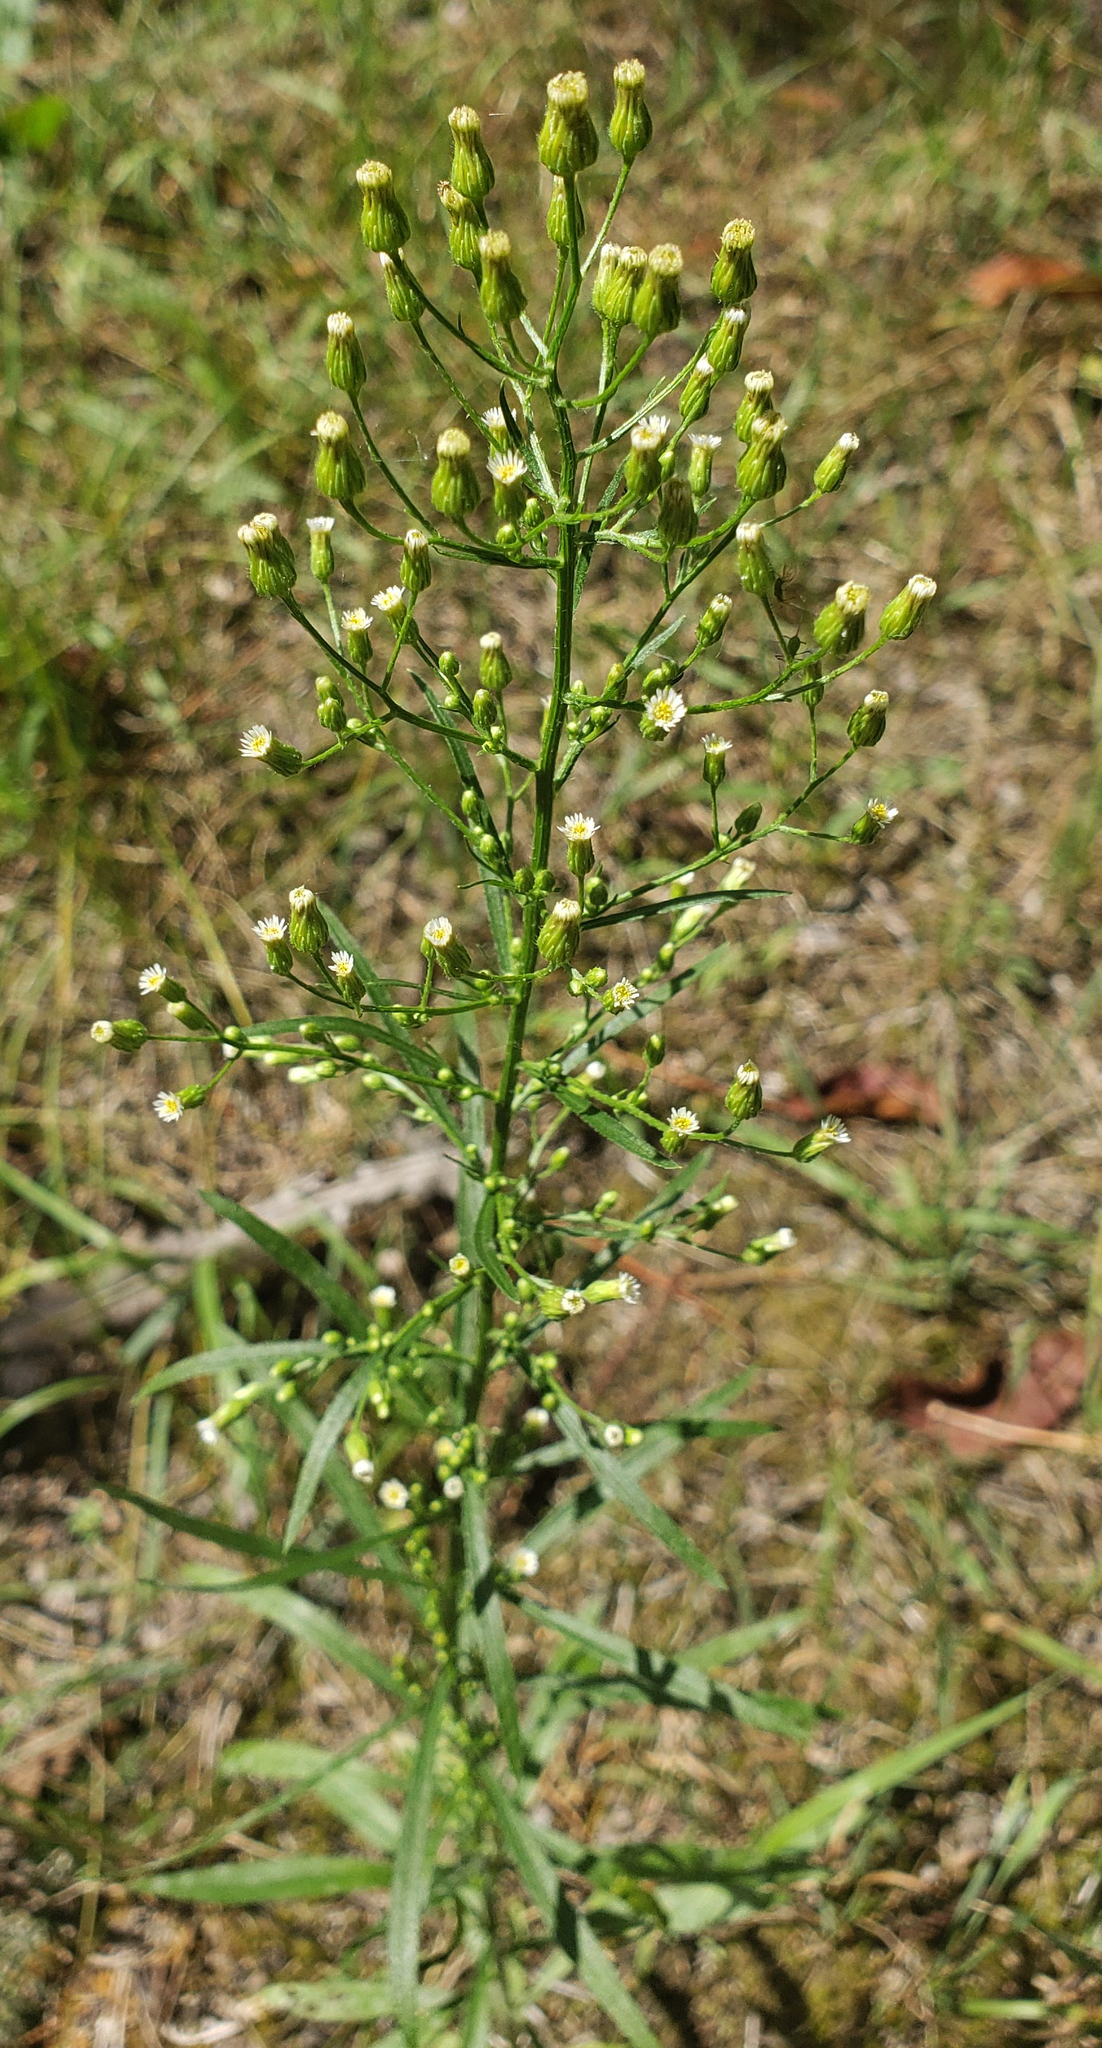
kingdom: Plantae
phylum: Tracheophyta
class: Magnoliopsida
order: Asterales
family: Asteraceae
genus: Erigeron
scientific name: Erigeron canadensis
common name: Canadian fleabane
